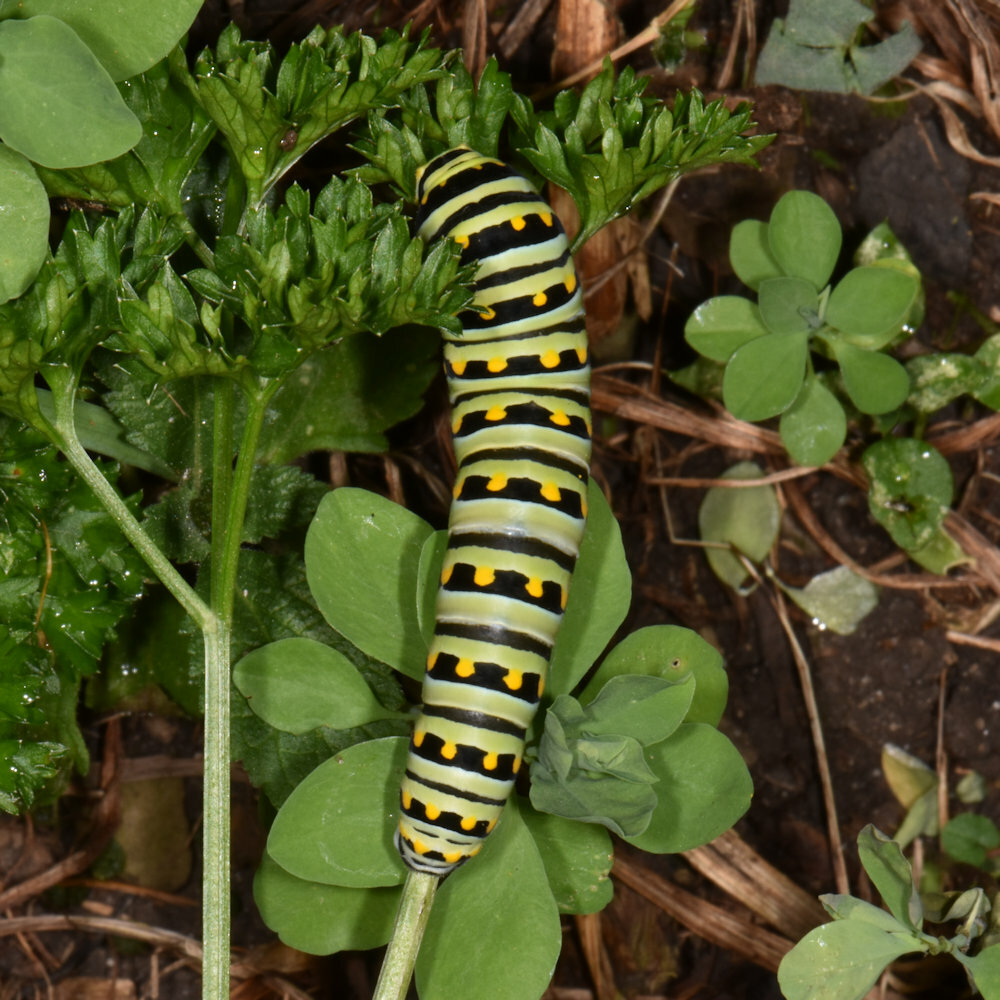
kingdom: Animalia
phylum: Arthropoda
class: Insecta
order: Lepidoptera
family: Papilionidae
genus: Papilio
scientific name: Papilio polyxenes
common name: Black swallowtail
